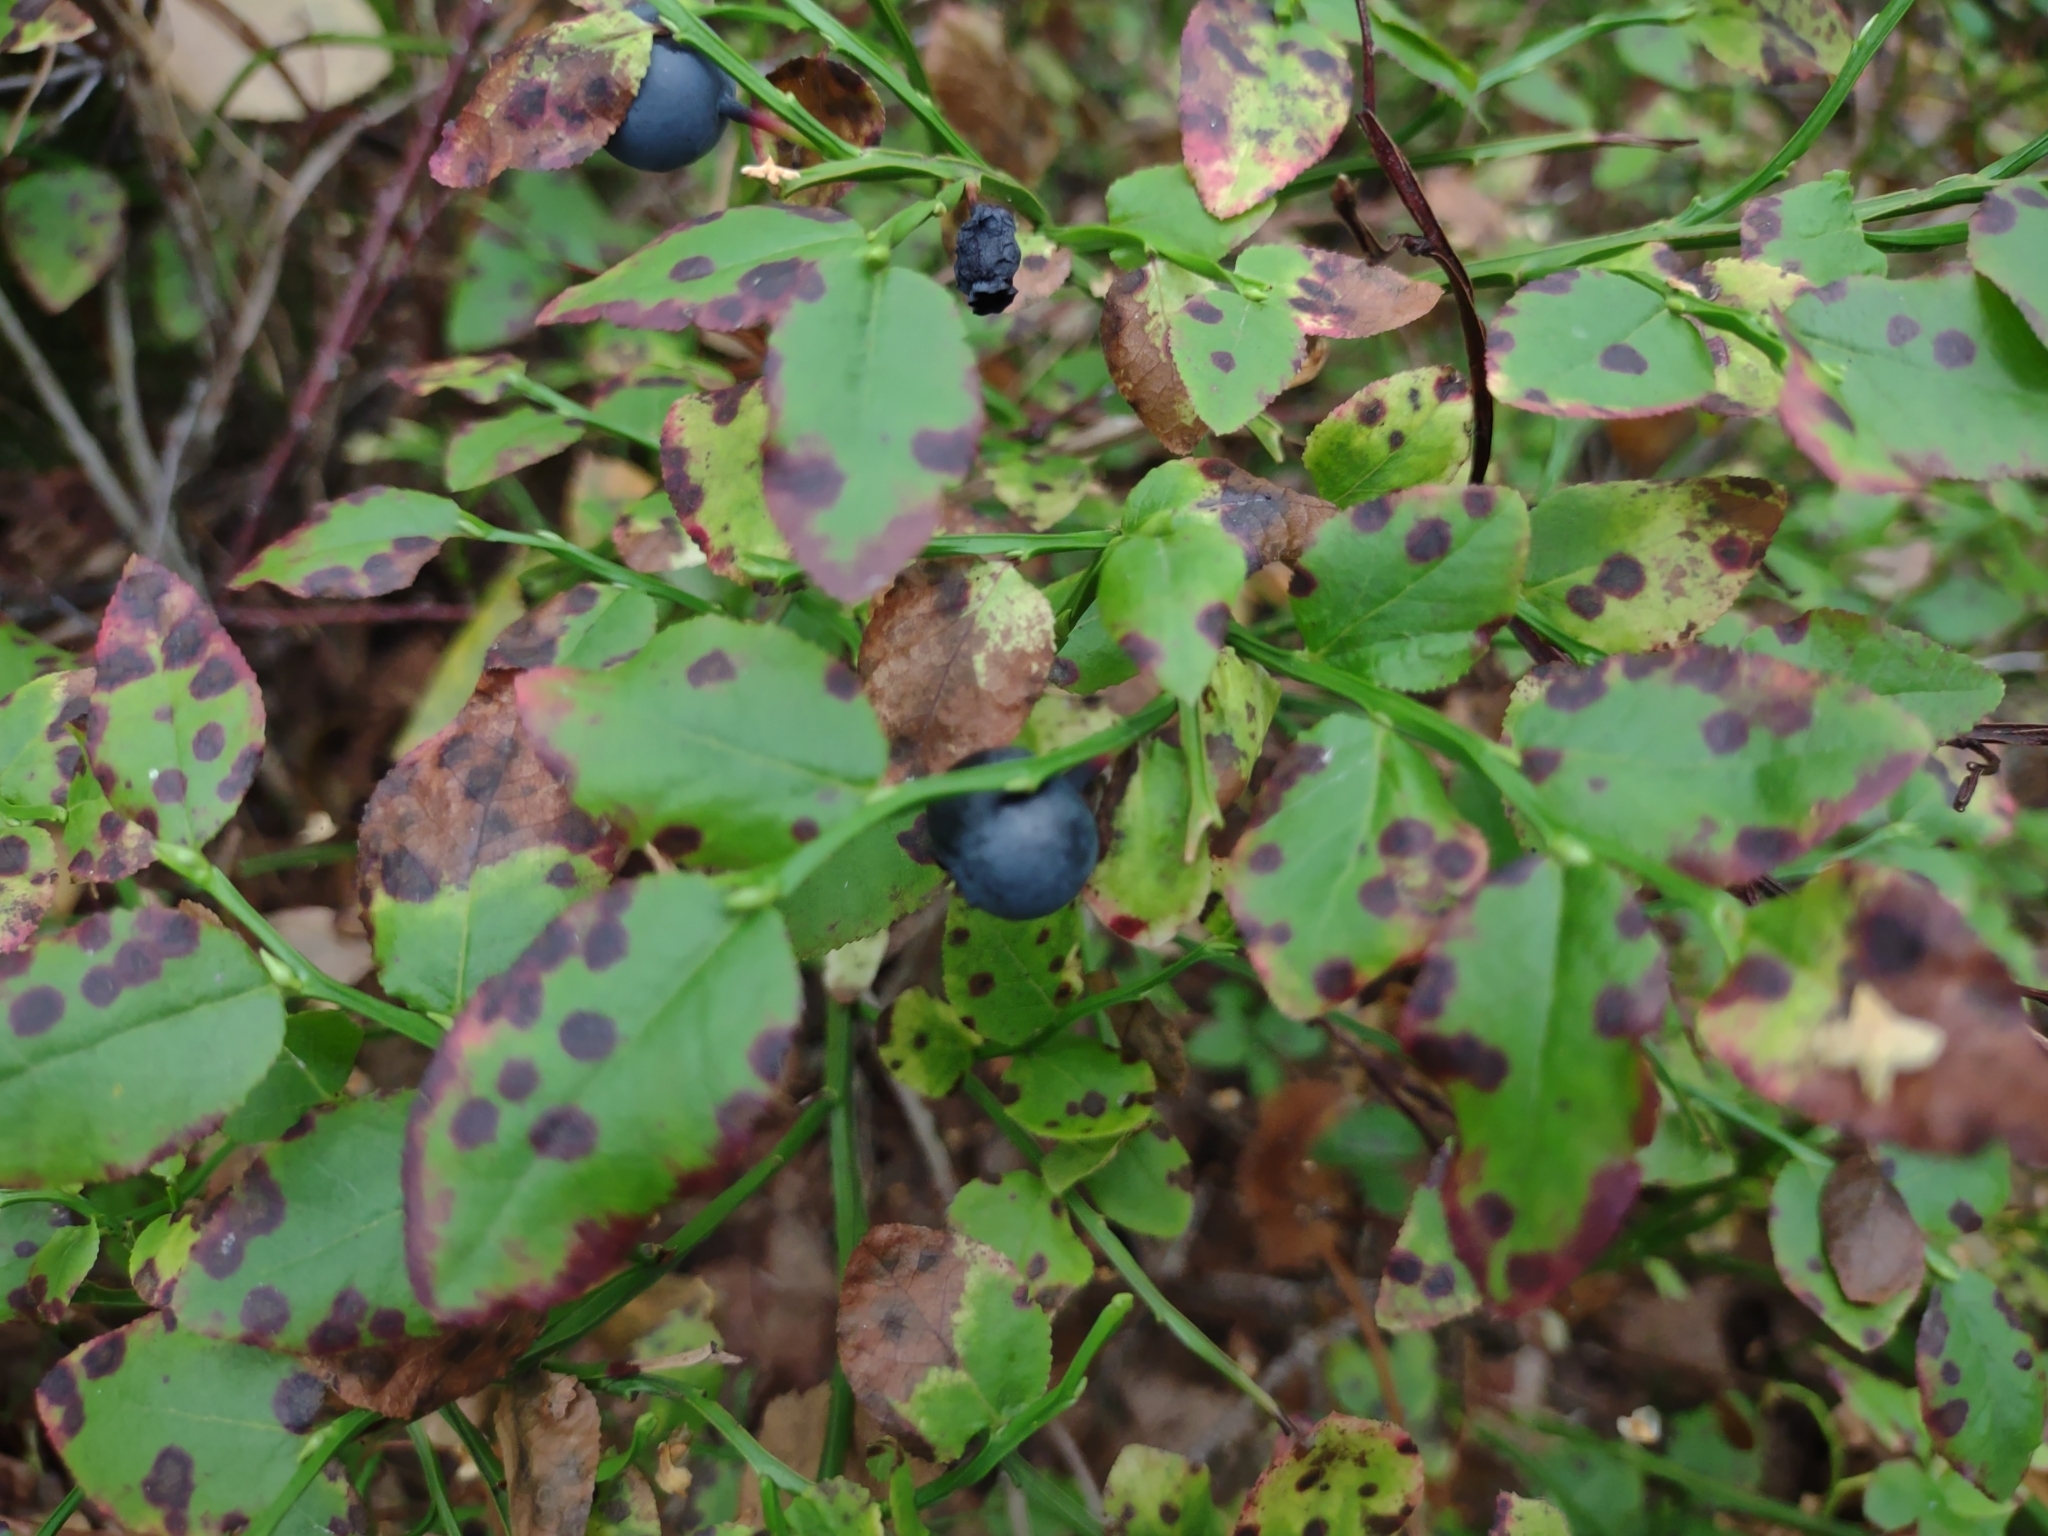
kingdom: Plantae
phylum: Tracheophyta
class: Magnoliopsida
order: Ericales
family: Ericaceae
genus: Vaccinium
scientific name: Vaccinium myrtillus
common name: Bilberry
